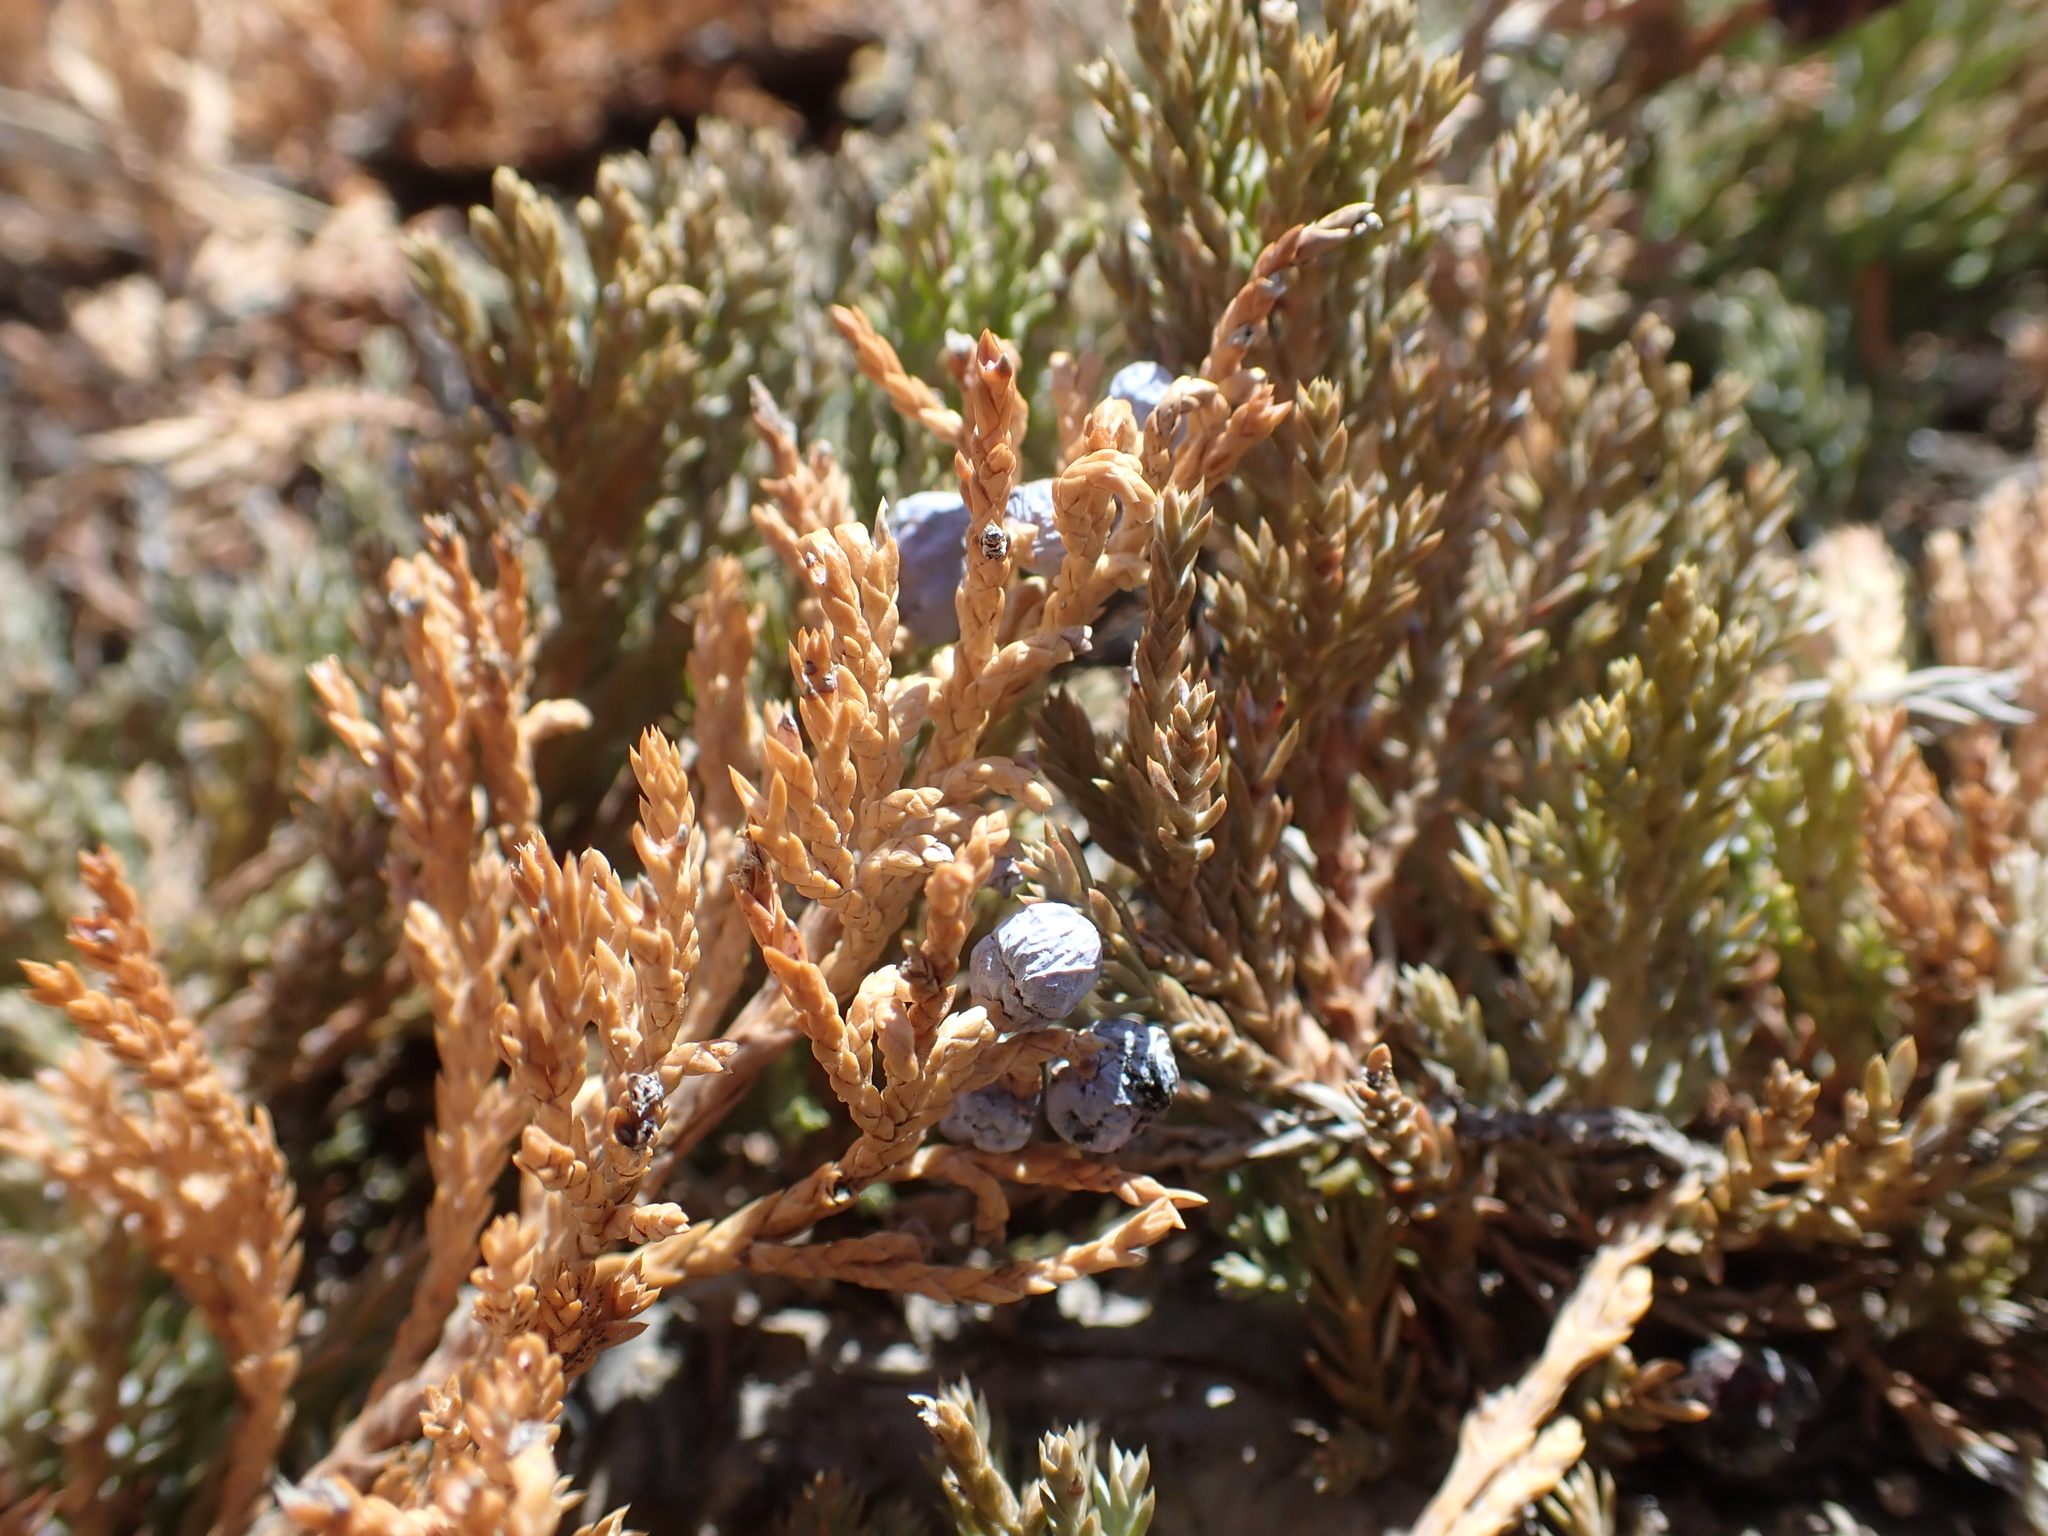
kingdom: Plantae
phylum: Tracheophyta
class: Pinopsida
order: Pinales
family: Cupressaceae
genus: Juniperus
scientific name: Juniperus horizontalis
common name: Creeping juniper
